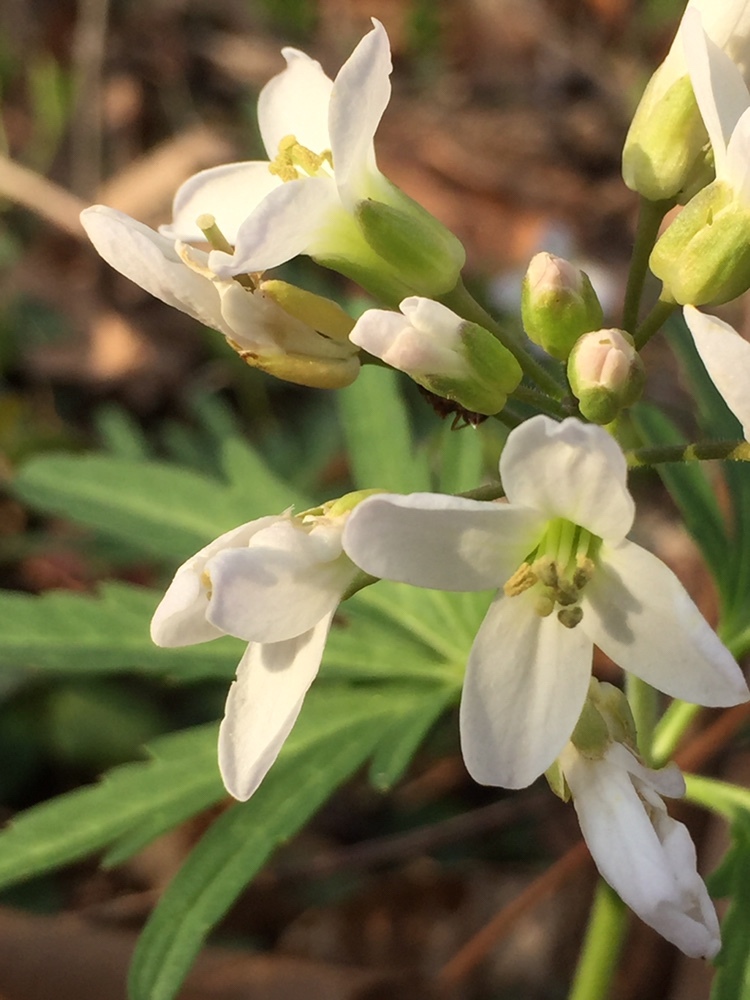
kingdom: Plantae
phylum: Tracheophyta
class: Magnoliopsida
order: Brassicales
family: Brassicaceae
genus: Cardamine
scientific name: Cardamine concatenata
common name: Cut-leaf toothcup
